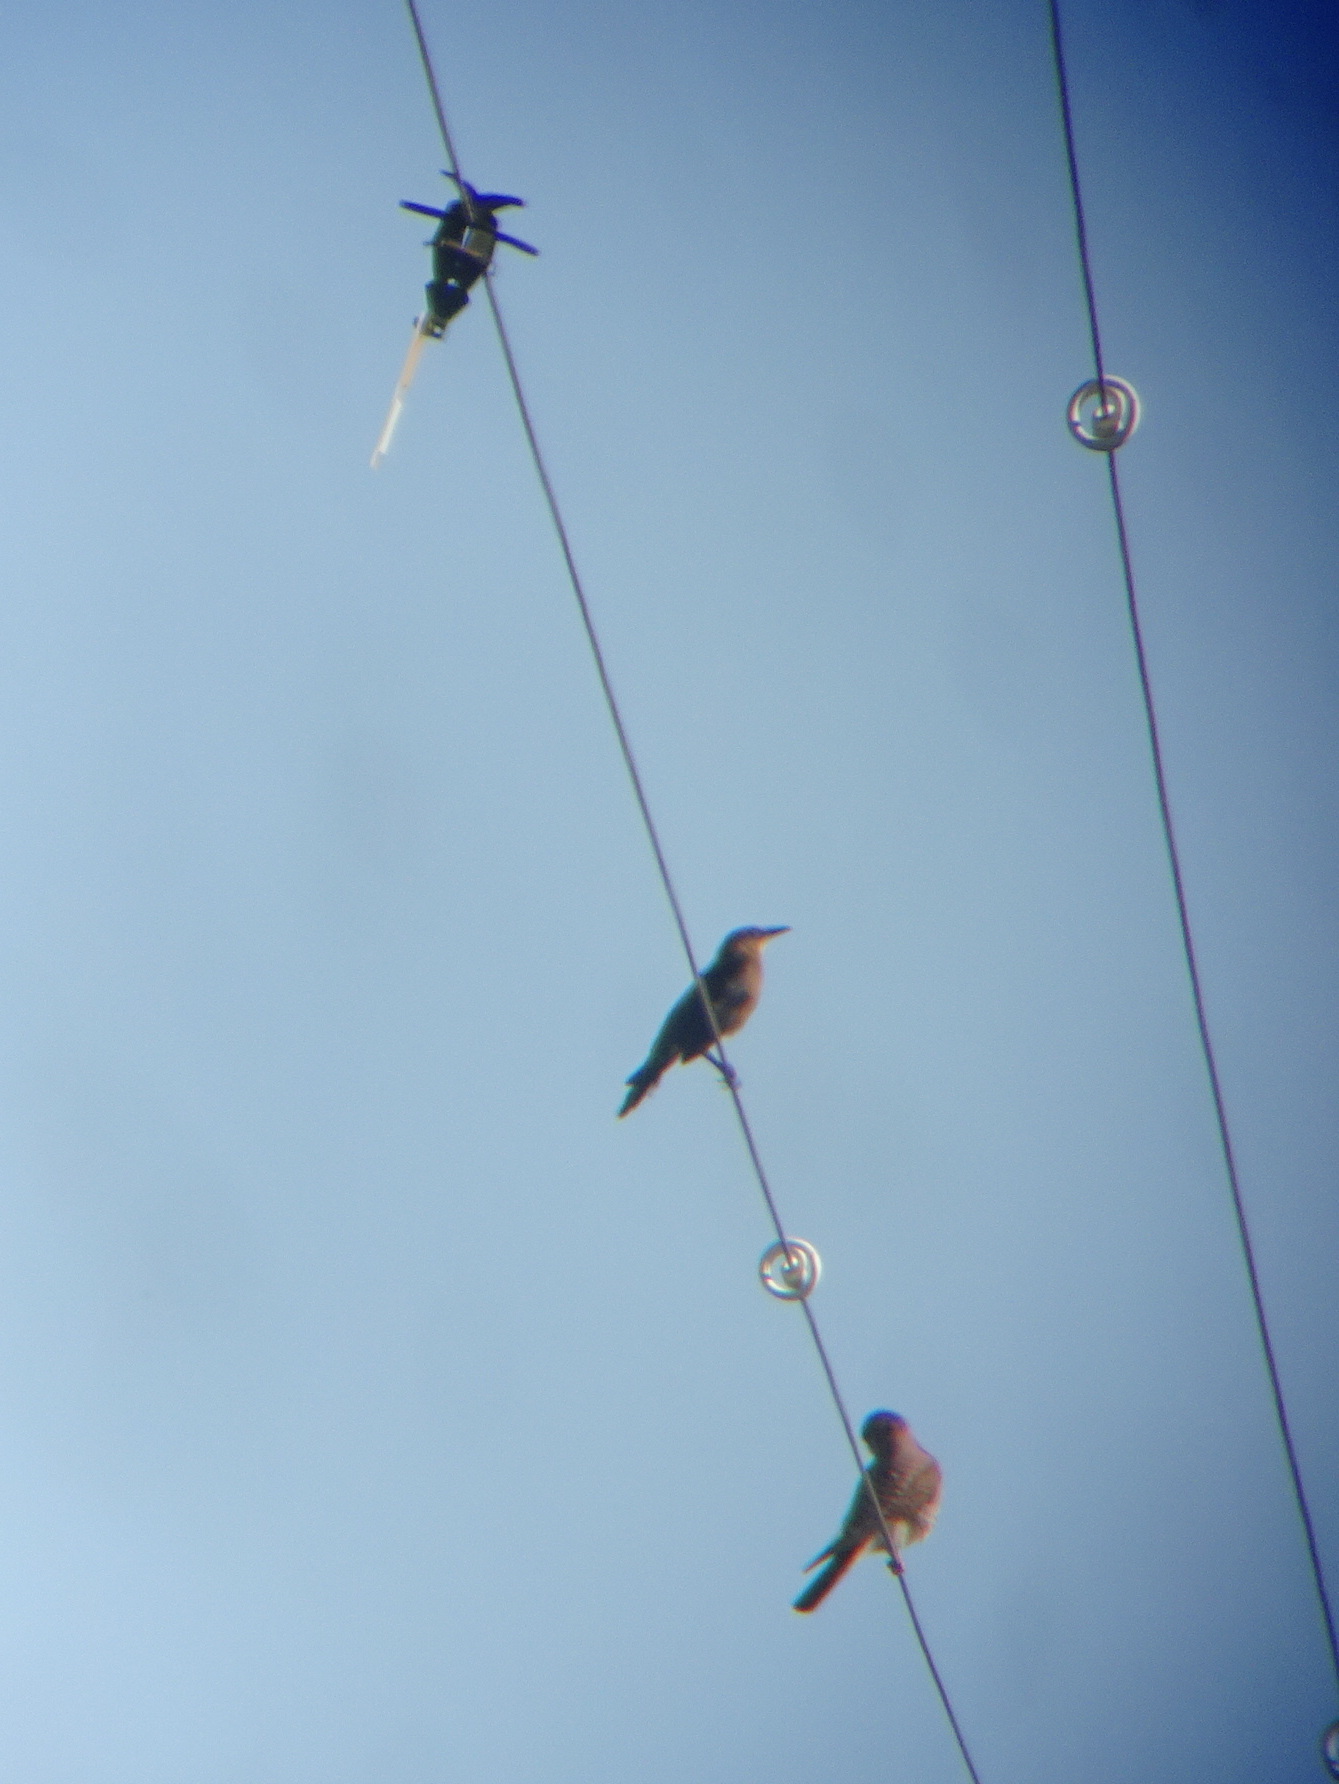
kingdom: Animalia
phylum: Chordata
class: Aves
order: Passeriformes
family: Icteridae
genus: Quiscalus
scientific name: Quiscalus mexicanus
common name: Great-tailed grackle
